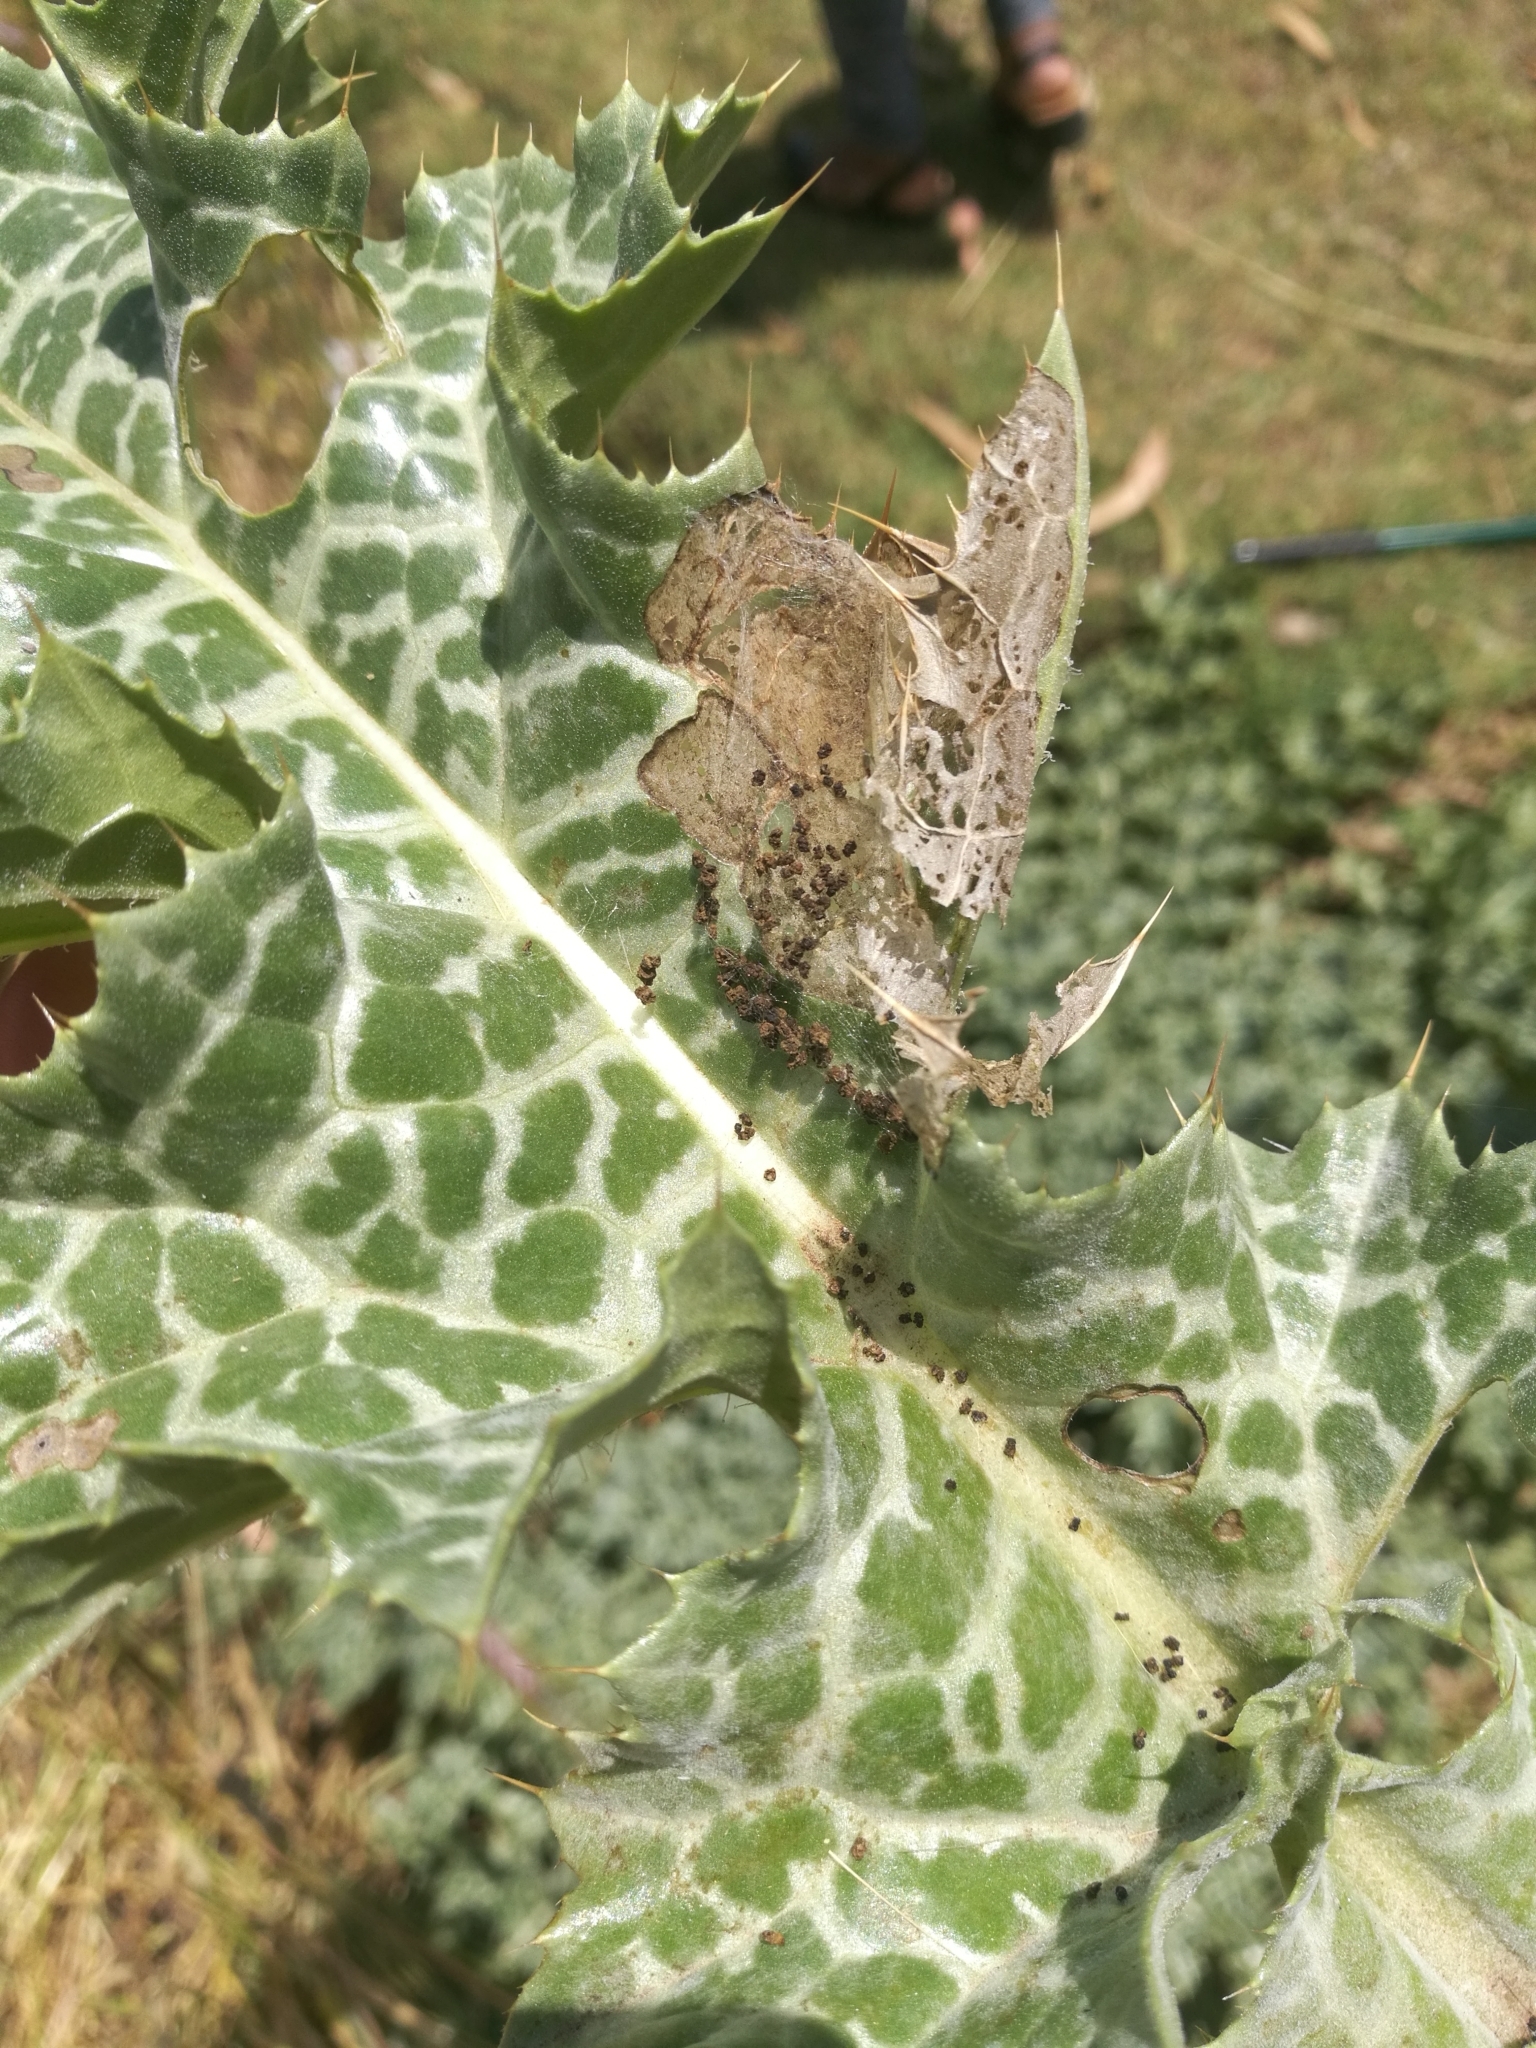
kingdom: Plantae
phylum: Tracheophyta
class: Magnoliopsida
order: Asterales
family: Asteraceae
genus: Silybum
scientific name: Silybum marianum
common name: Milk thistle
